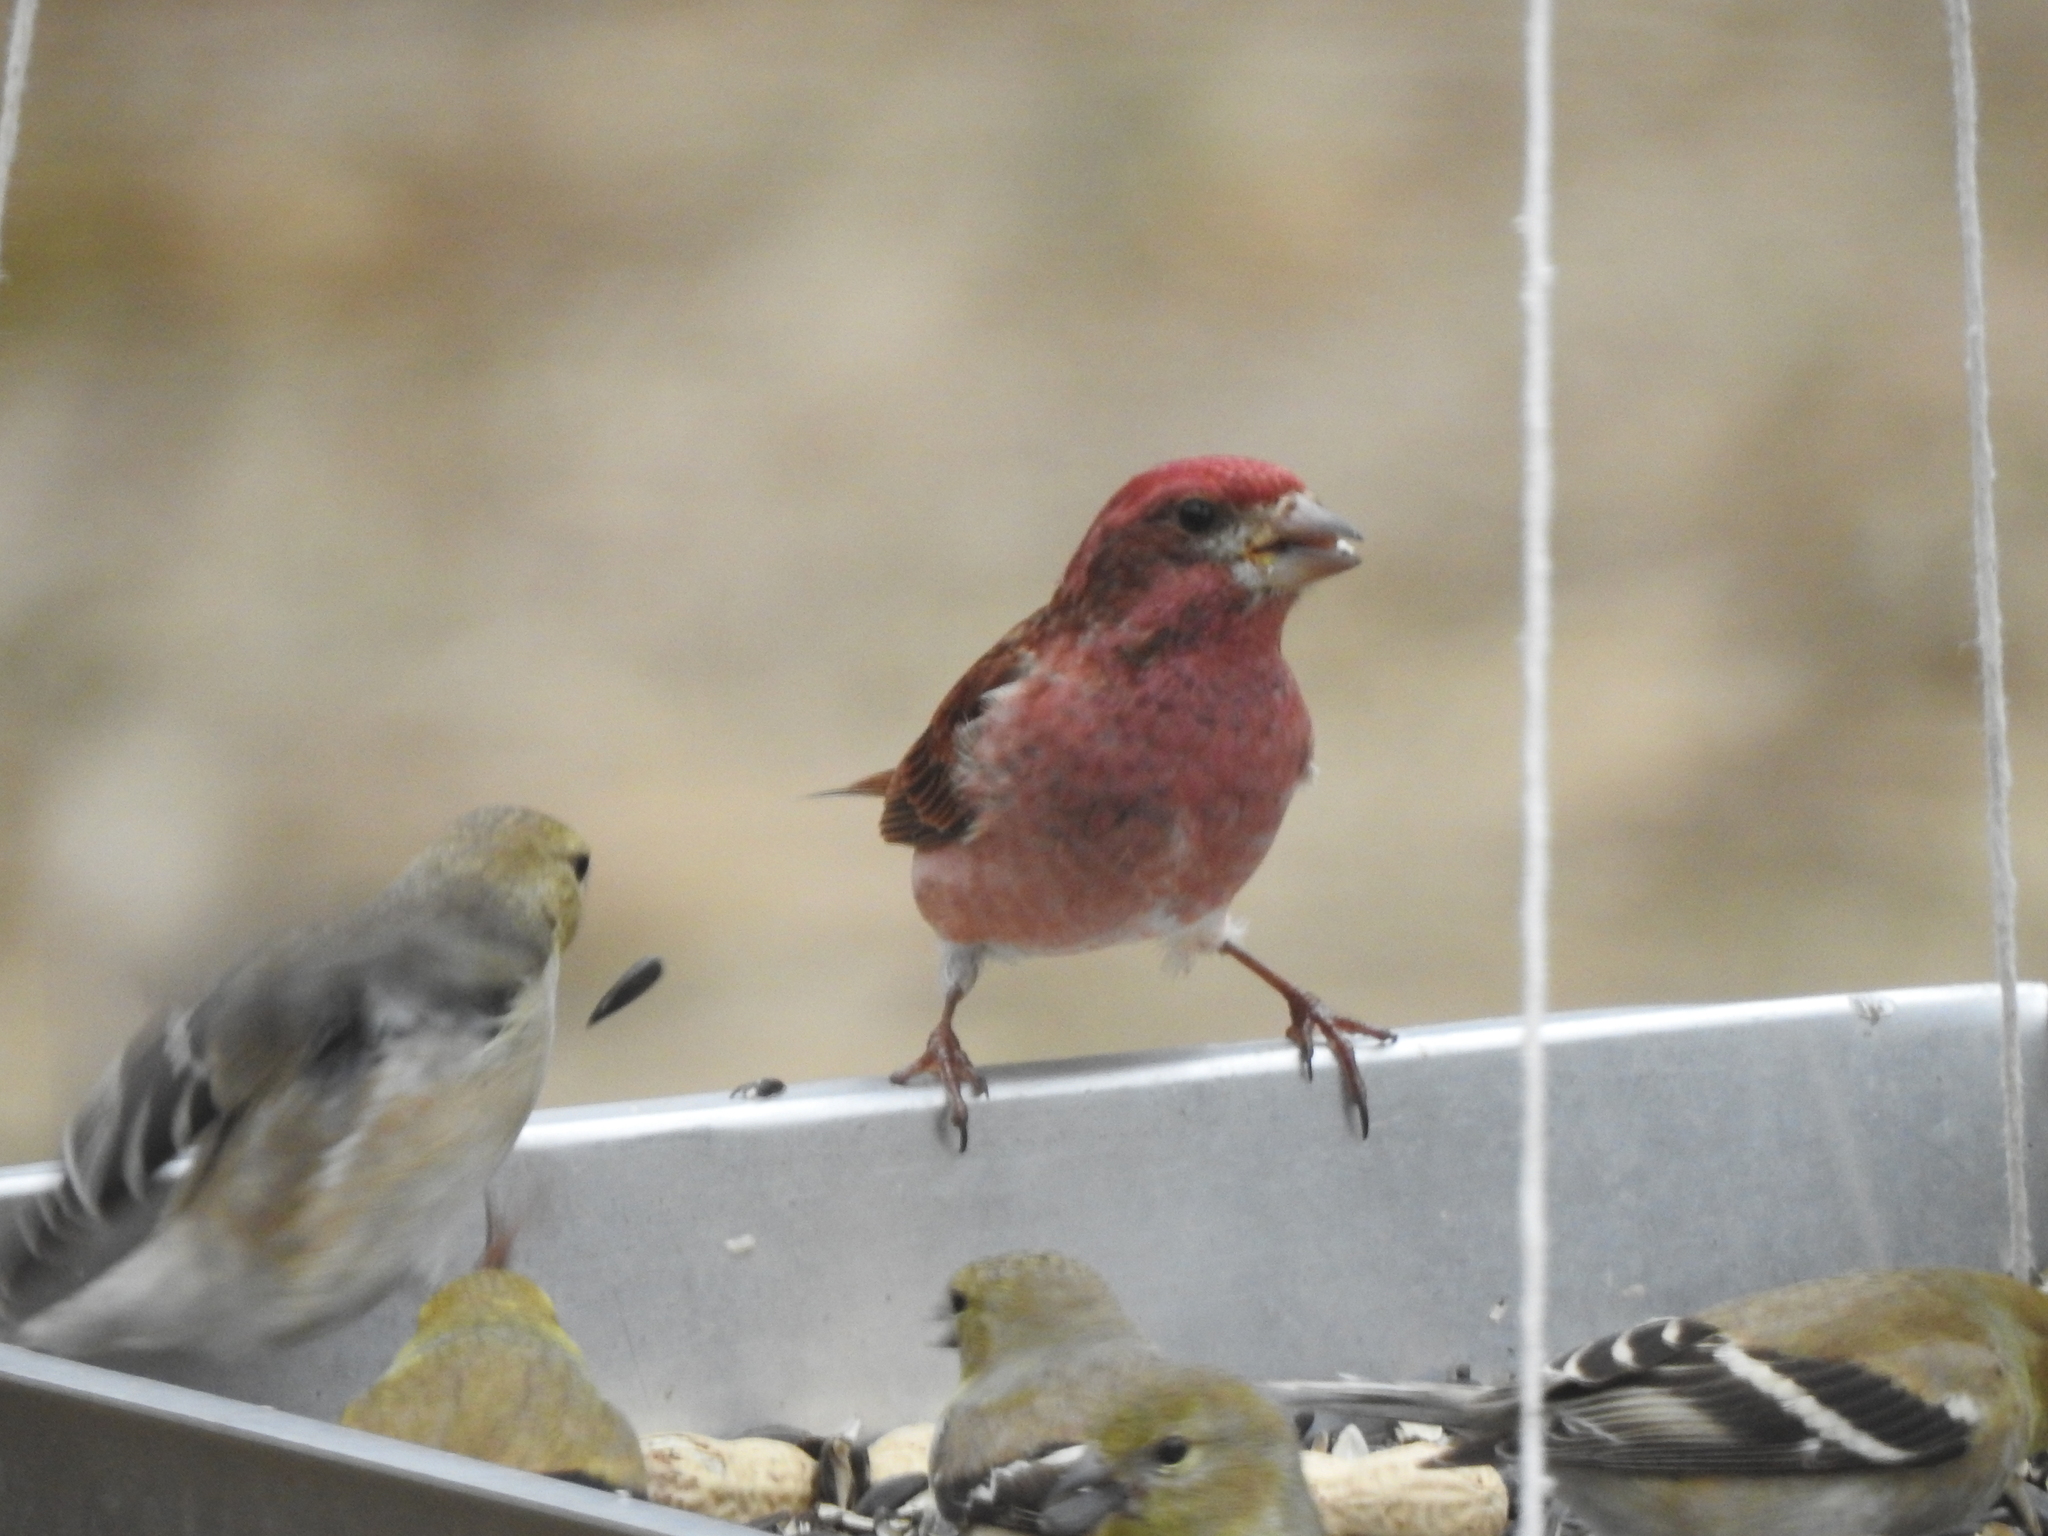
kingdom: Animalia
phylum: Chordata
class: Aves
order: Passeriformes
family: Fringillidae
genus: Haemorhous
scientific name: Haemorhous purpureus
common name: Purple finch
